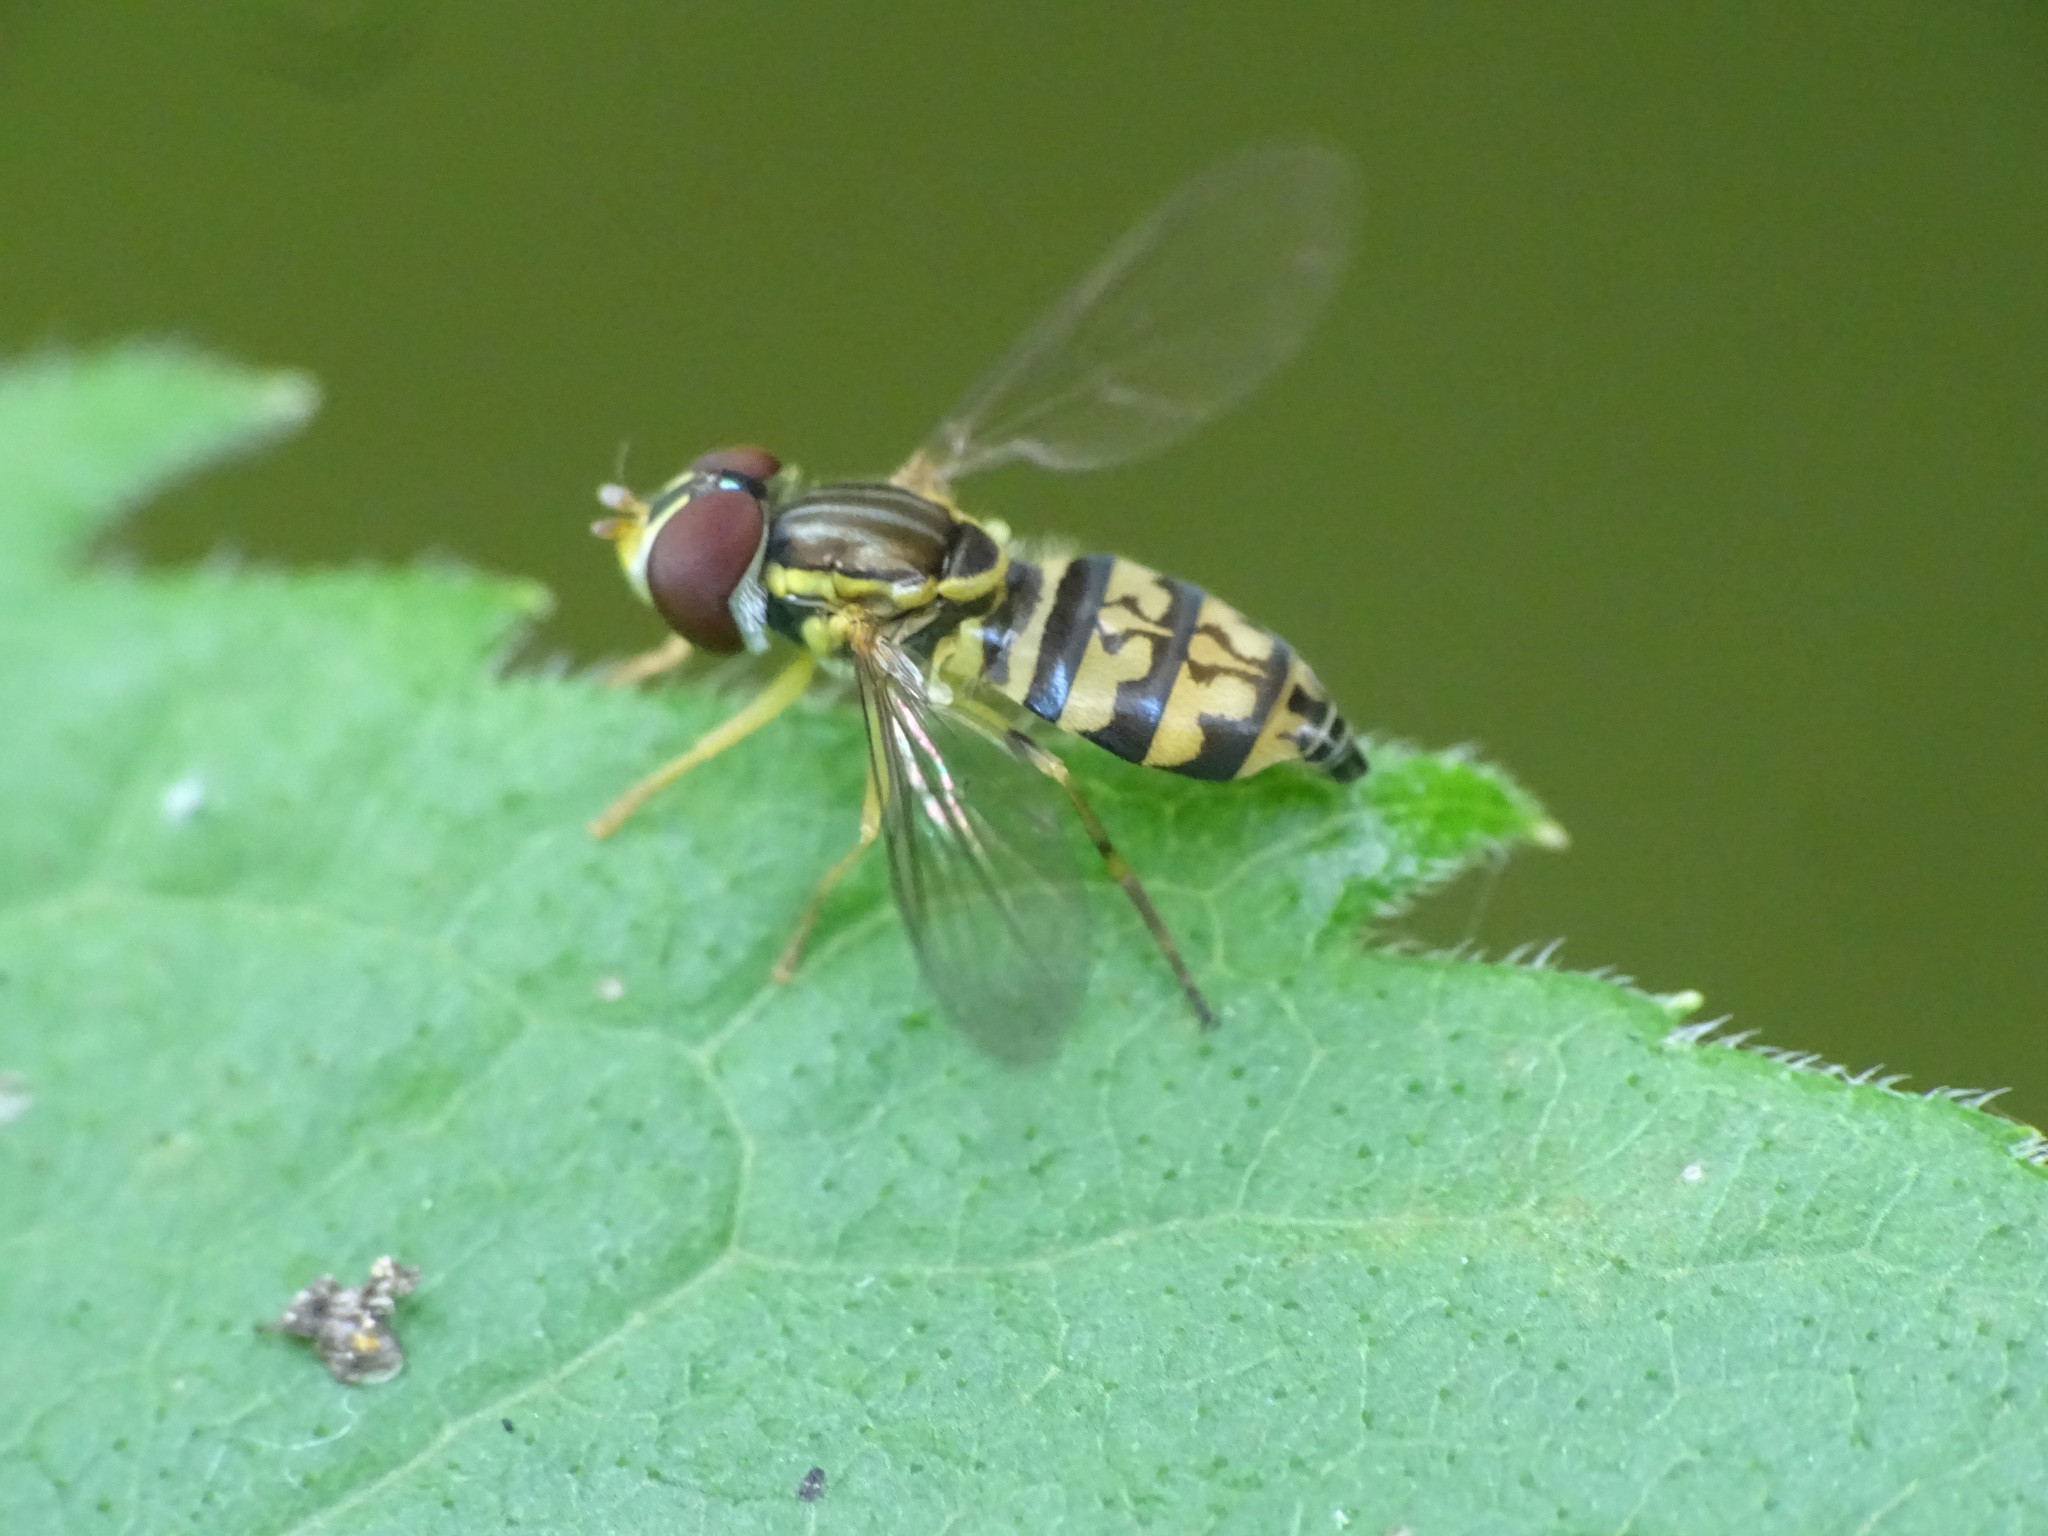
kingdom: Animalia
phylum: Arthropoda
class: Insecta
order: Diptera
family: Syrphidae
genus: Toxomerus
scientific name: Toxomerus geminatus
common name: Eastern calligrapher
